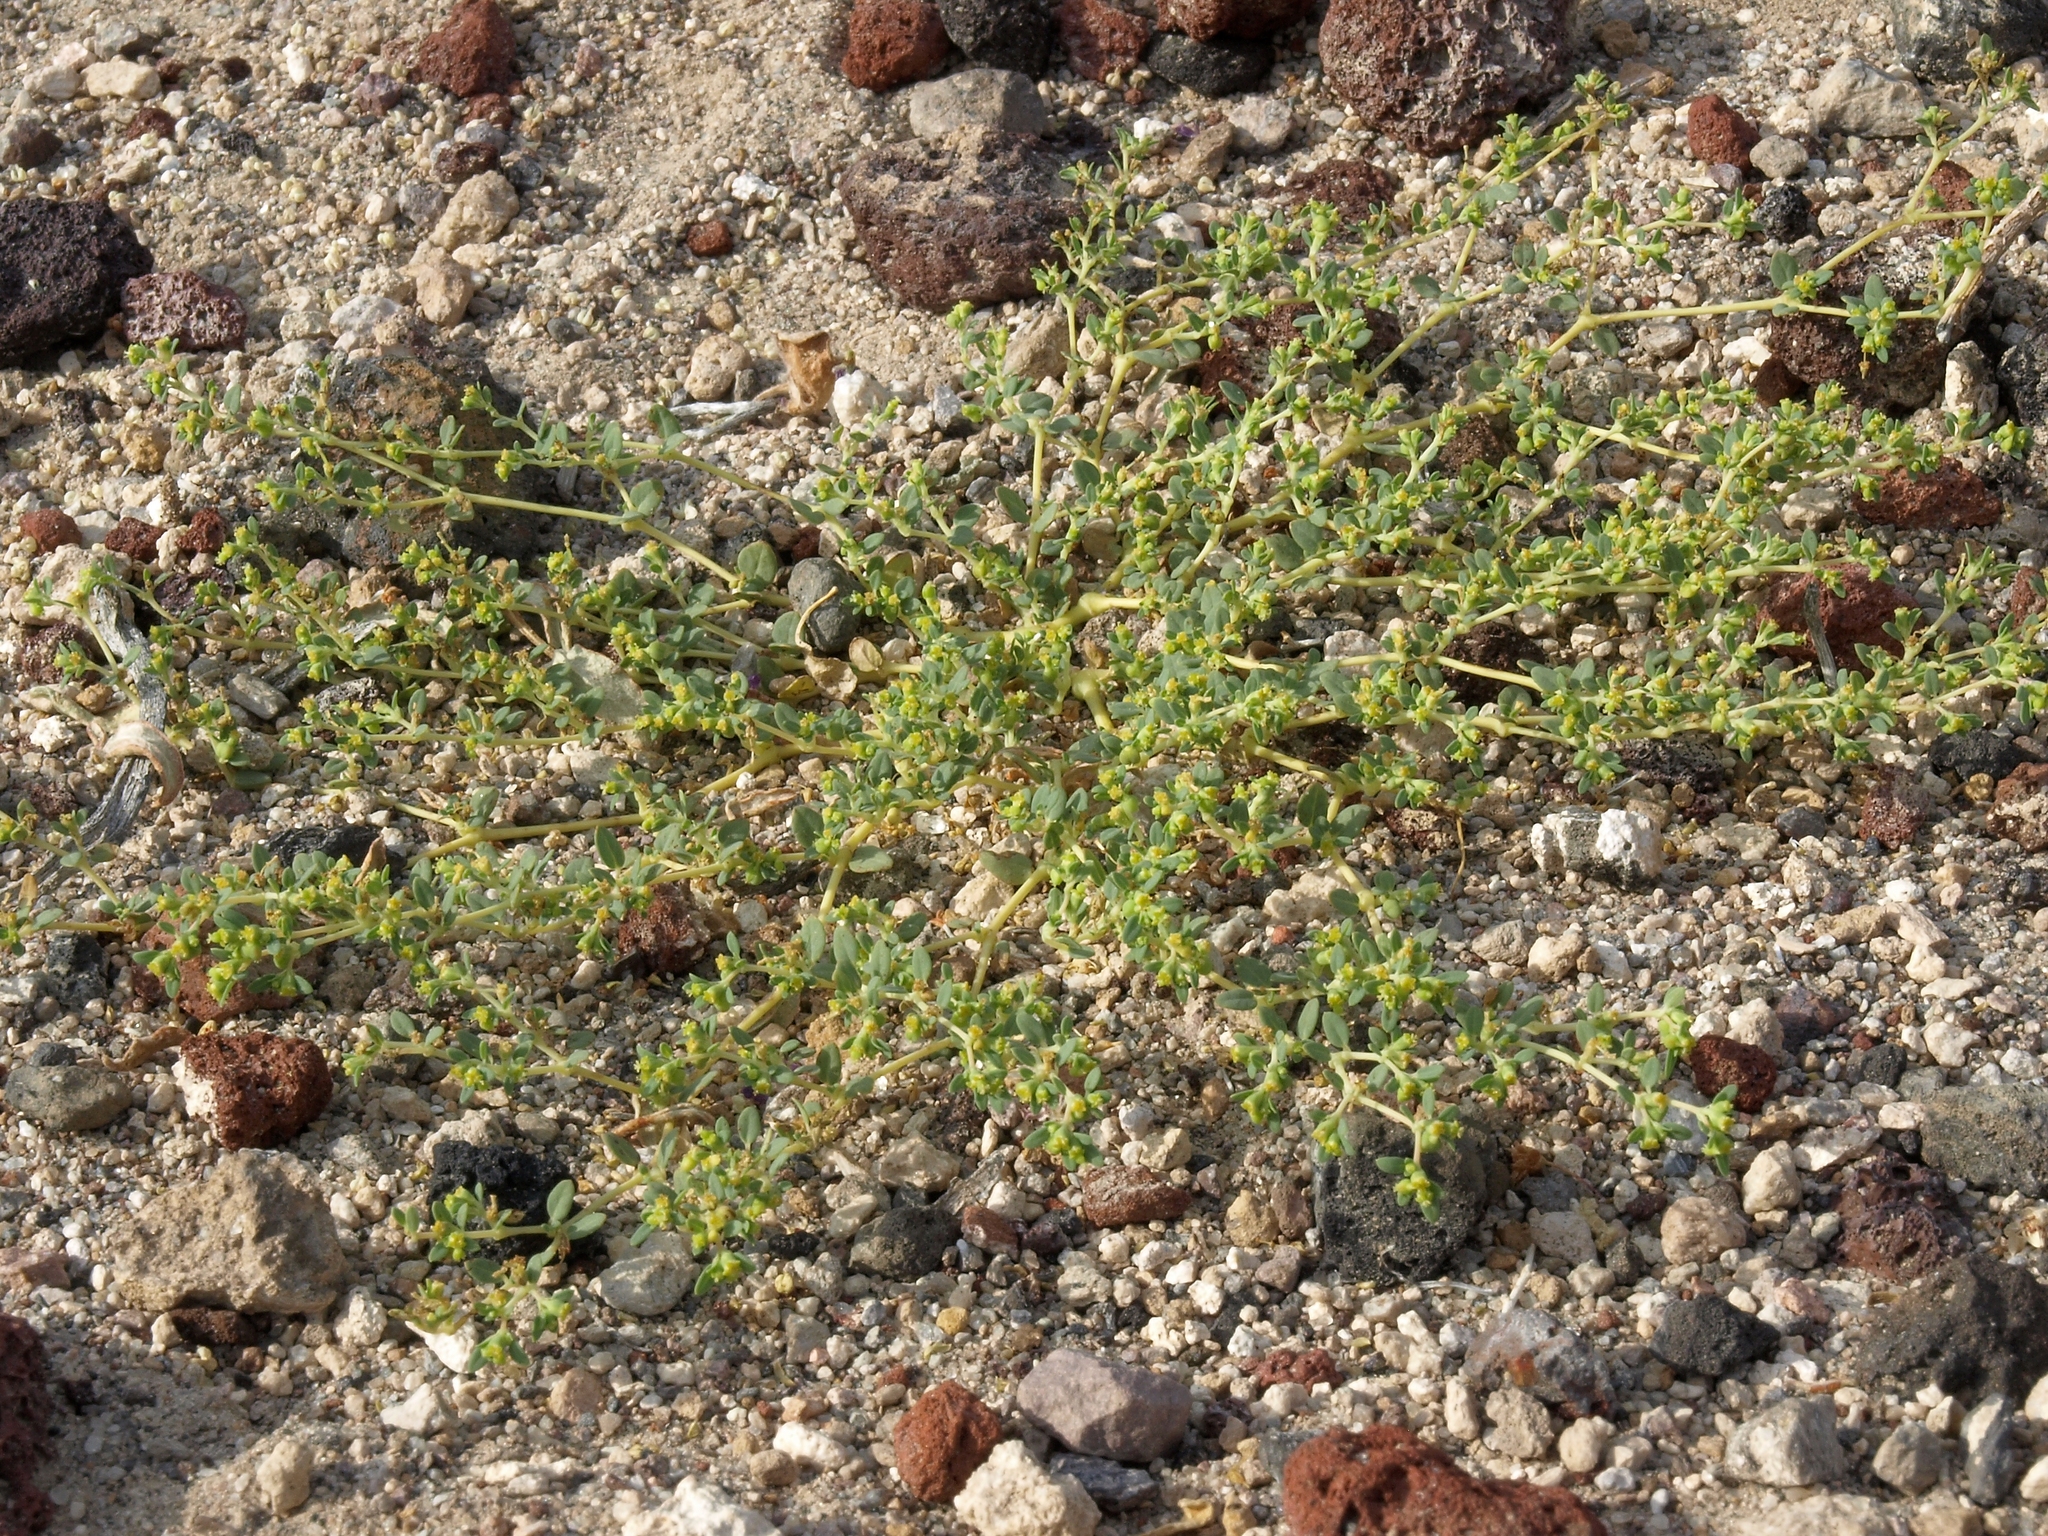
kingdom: Plantae
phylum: Tracheophyta
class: Magnoliopsida
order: Malpighiales
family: Euphorbiaceae
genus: Euphorbia
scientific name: Euphorbia ocellata
